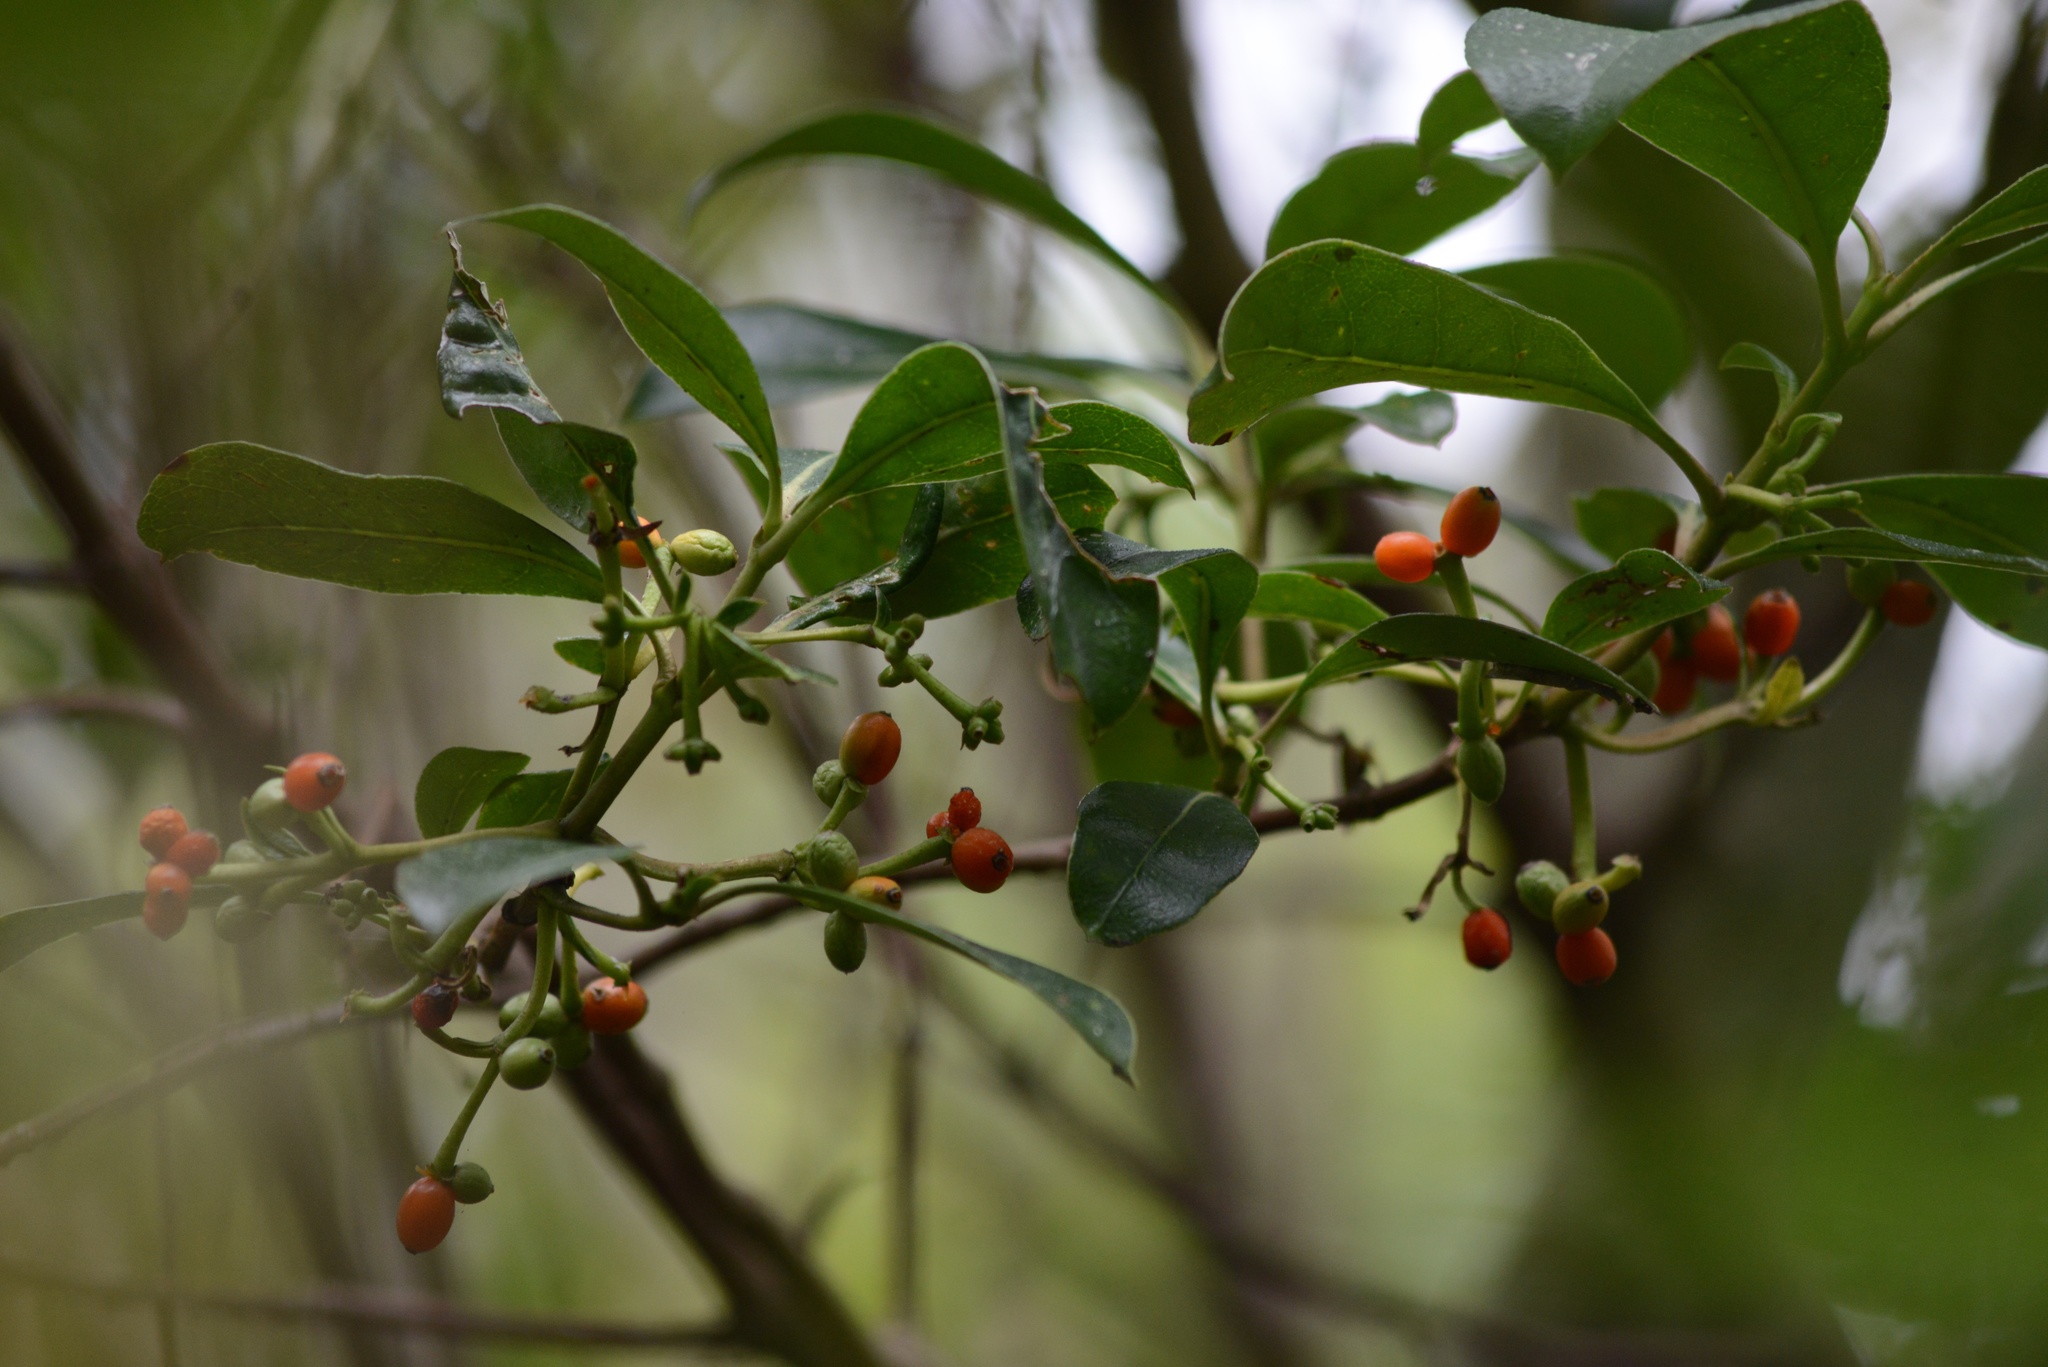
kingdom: Plantae
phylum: Tracheophyta
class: Magnoliopsida
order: Gentianales
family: Rubiaceae
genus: Coprosma
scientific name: Coprosma lucida
